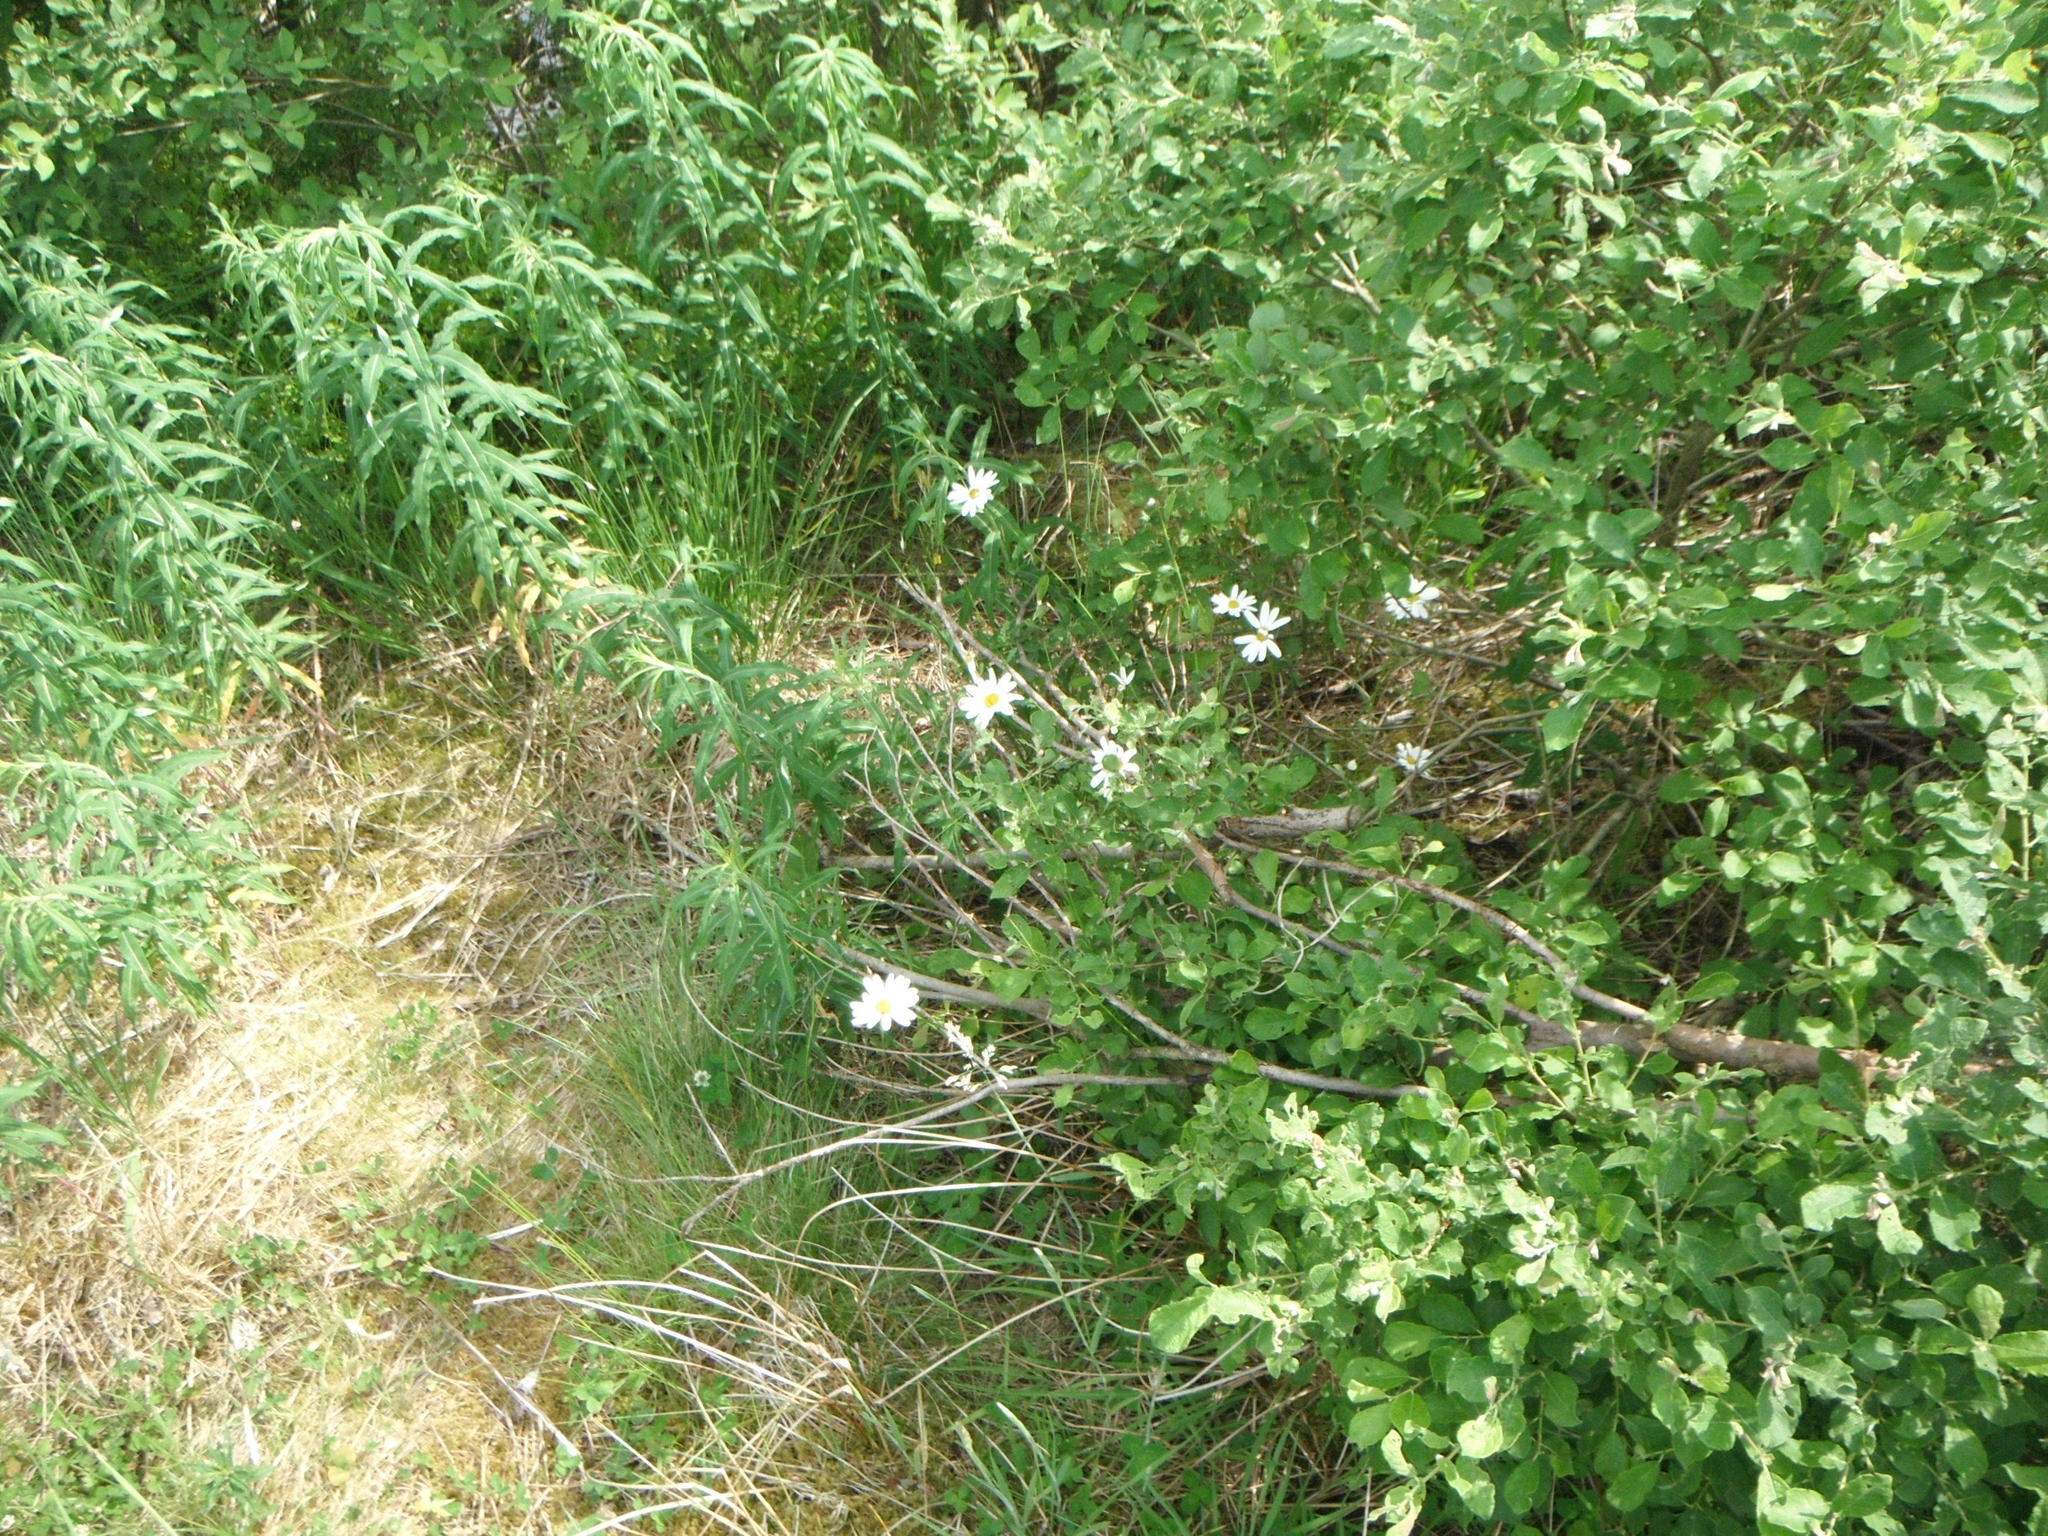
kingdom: Plantae
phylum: Tracheophyta
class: Magnoliopsida
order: Asterales
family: Asteraceae
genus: Leucanthemum
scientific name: Leucanthemum vulgare
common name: Oxeye daisy
